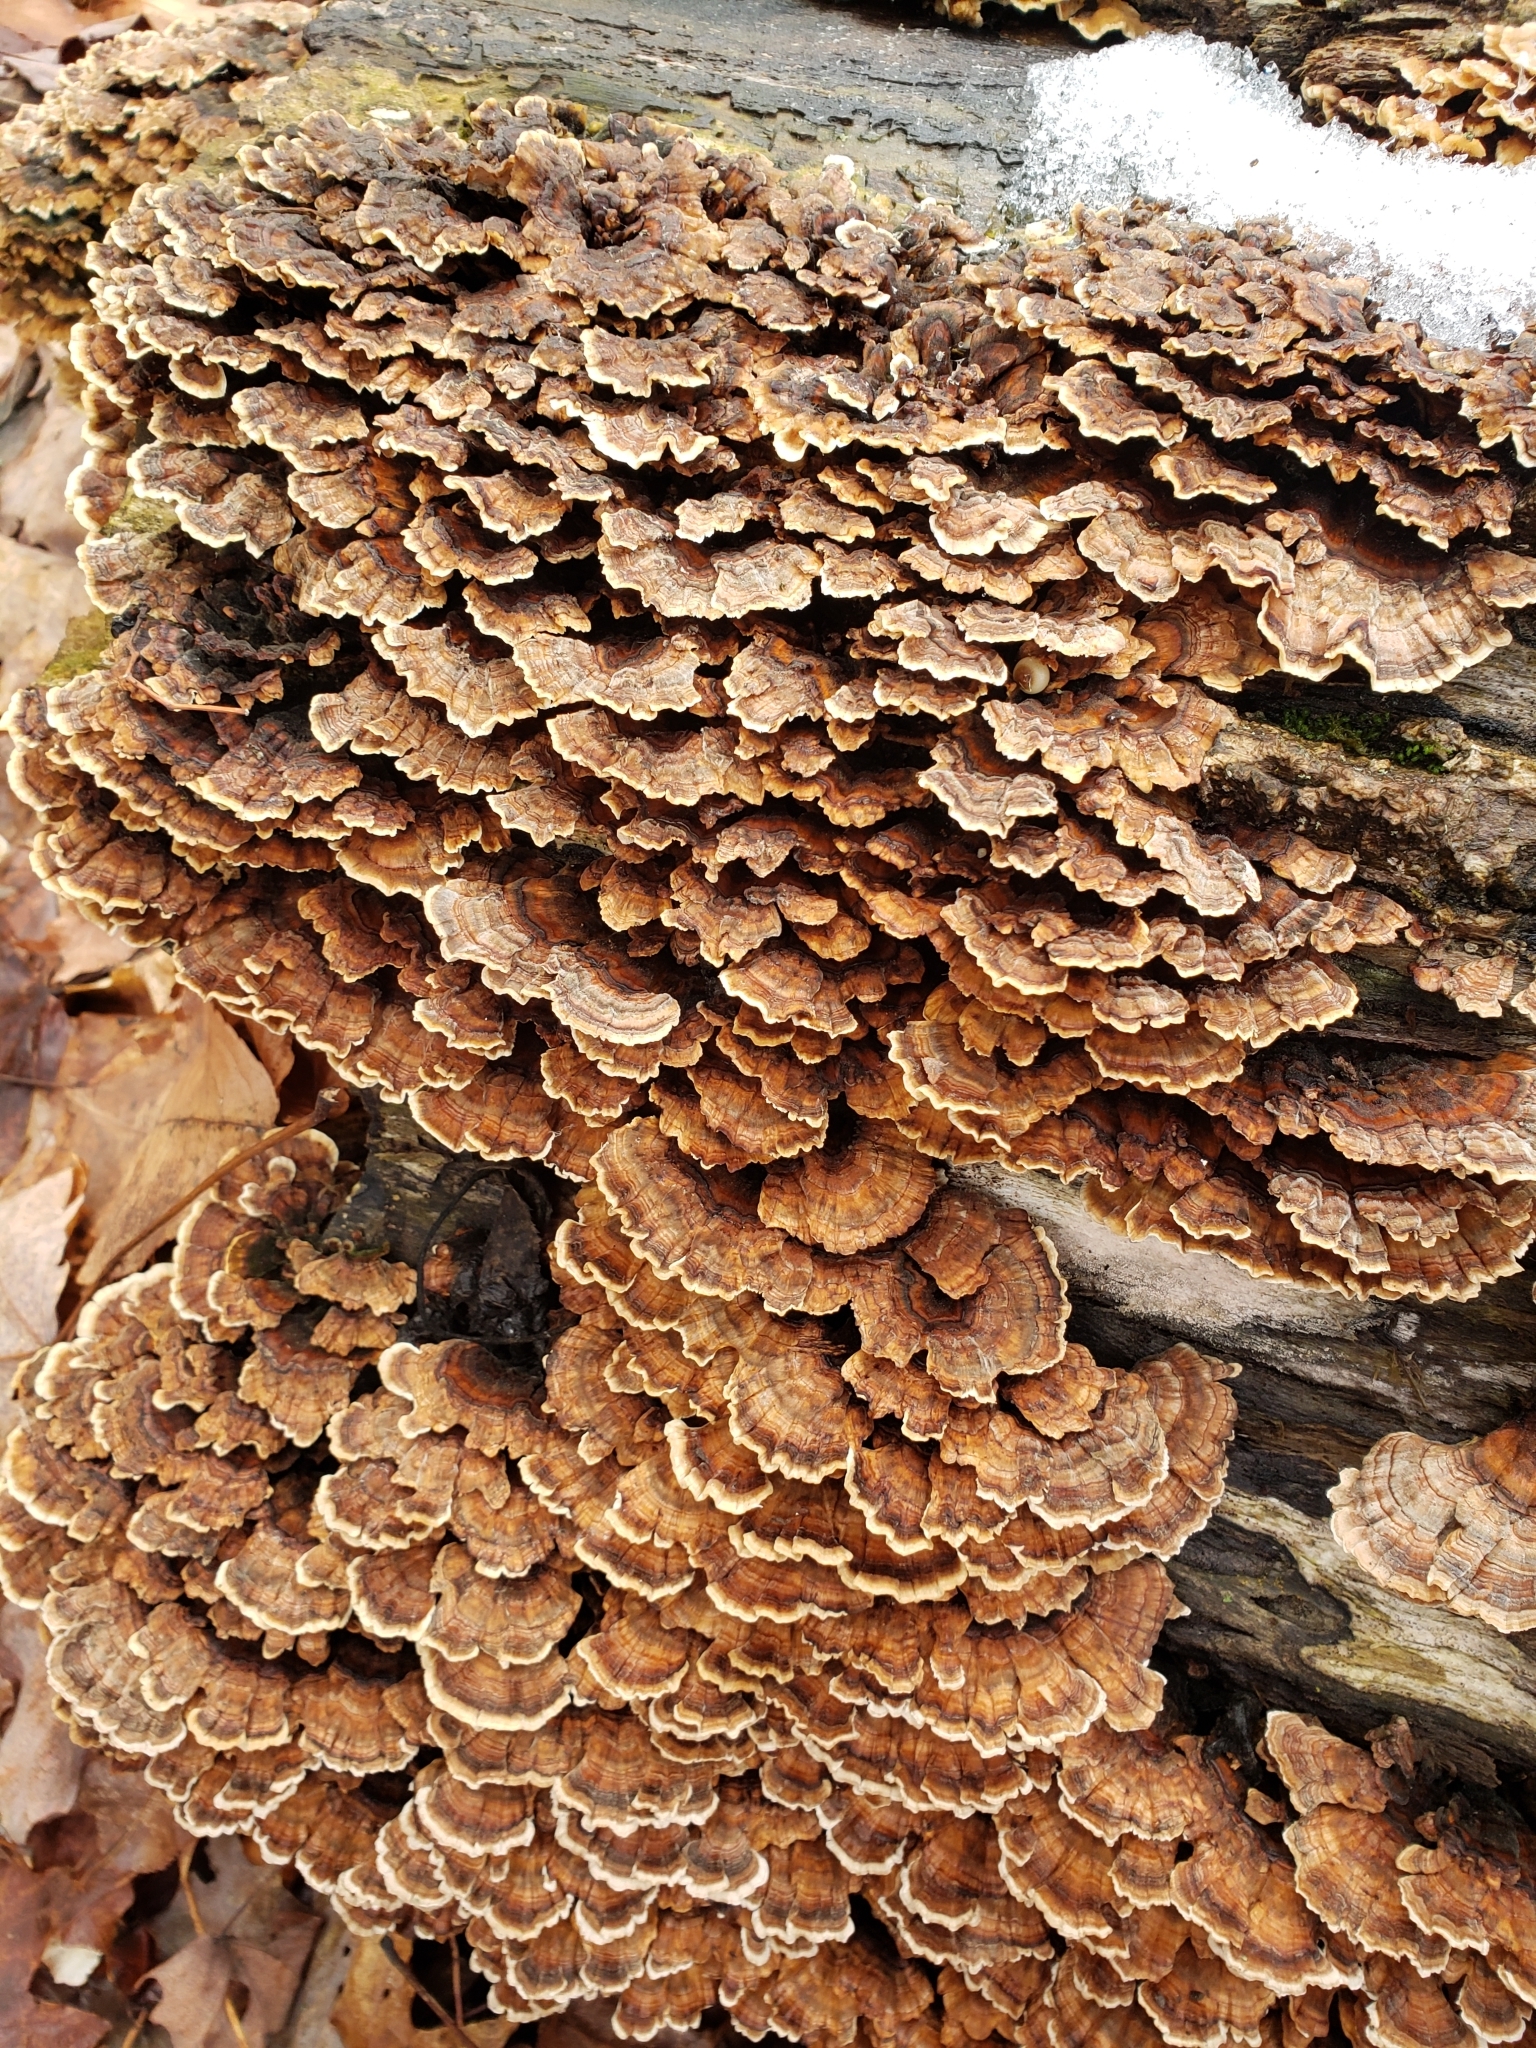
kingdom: Fungi
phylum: Basidiomycota
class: Agaricomycetes
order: Polyporales
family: Polyporaceae
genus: Trametes
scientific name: Trametes versicolor
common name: Turkeytail
